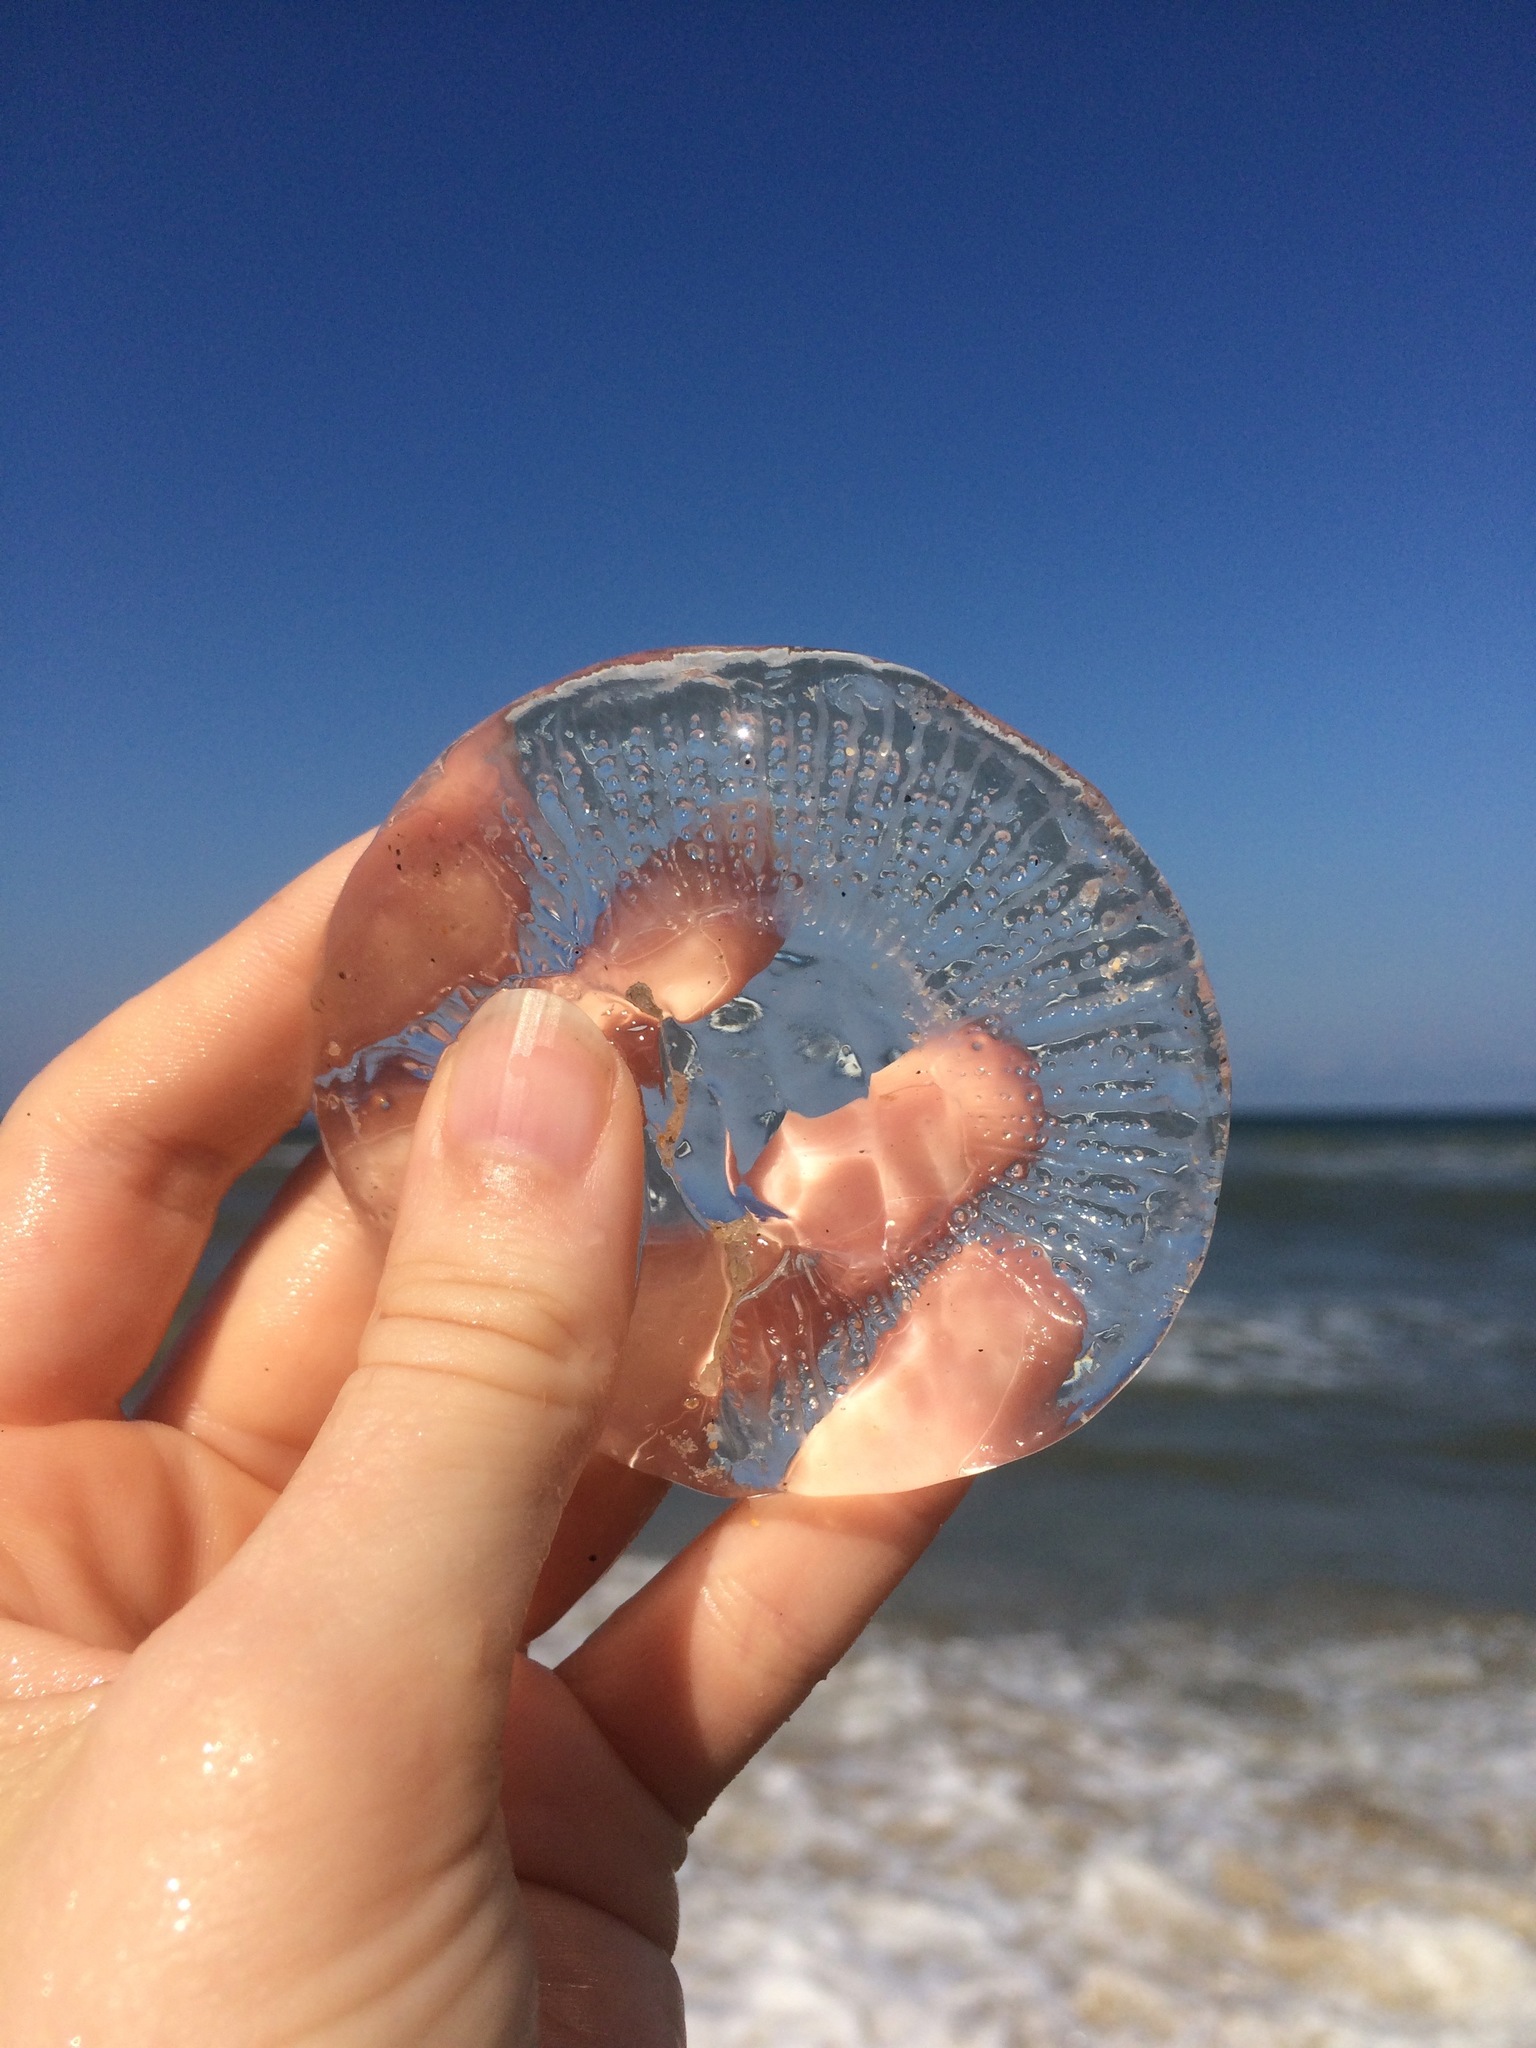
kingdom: Animalia
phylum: Cnidaria
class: Hydrozoa
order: Leptothecata
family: Aequoreidae
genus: Rhacostoma
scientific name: Rhacostoma atlanticum
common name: Lined water jelly
